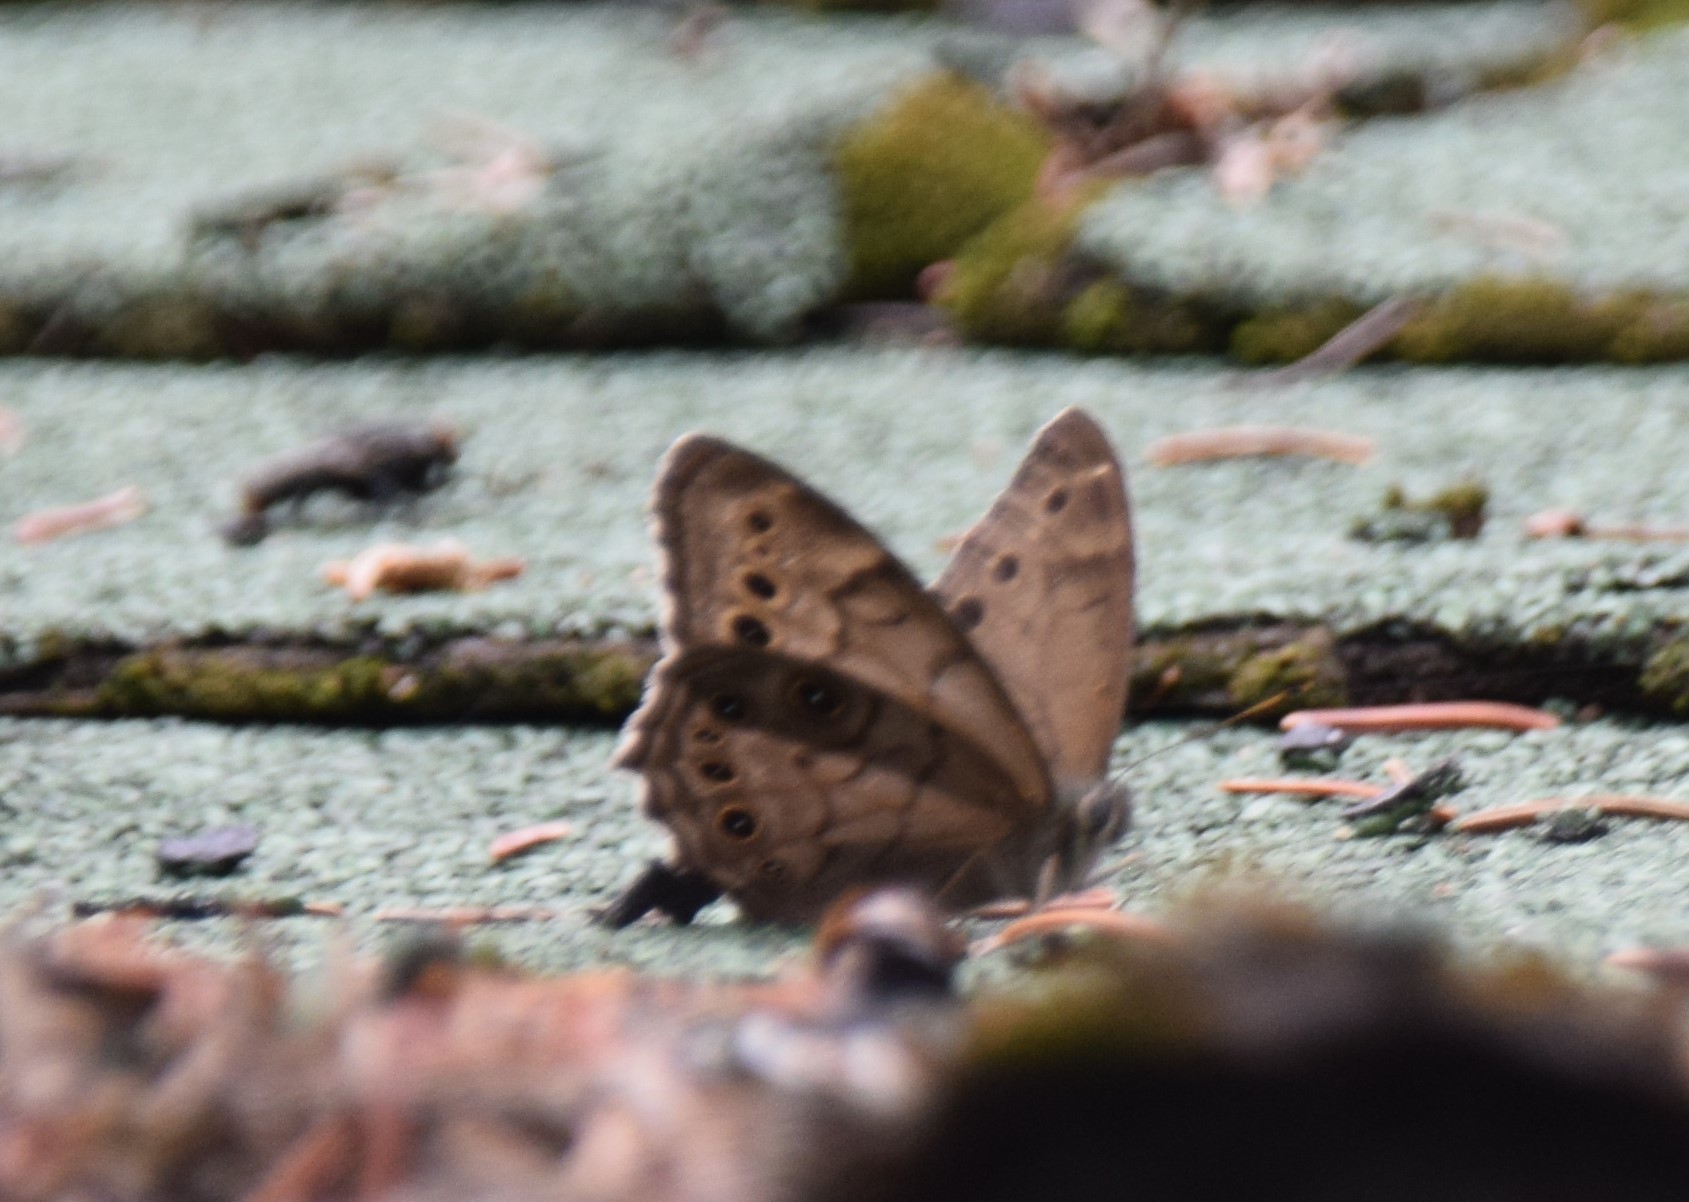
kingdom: Animalia
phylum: Arthropoda
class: Insecta
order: Lepidoptera
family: Nymphalidae
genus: Lethe
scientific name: Lethe anthedon
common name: Northern pearly-eye
